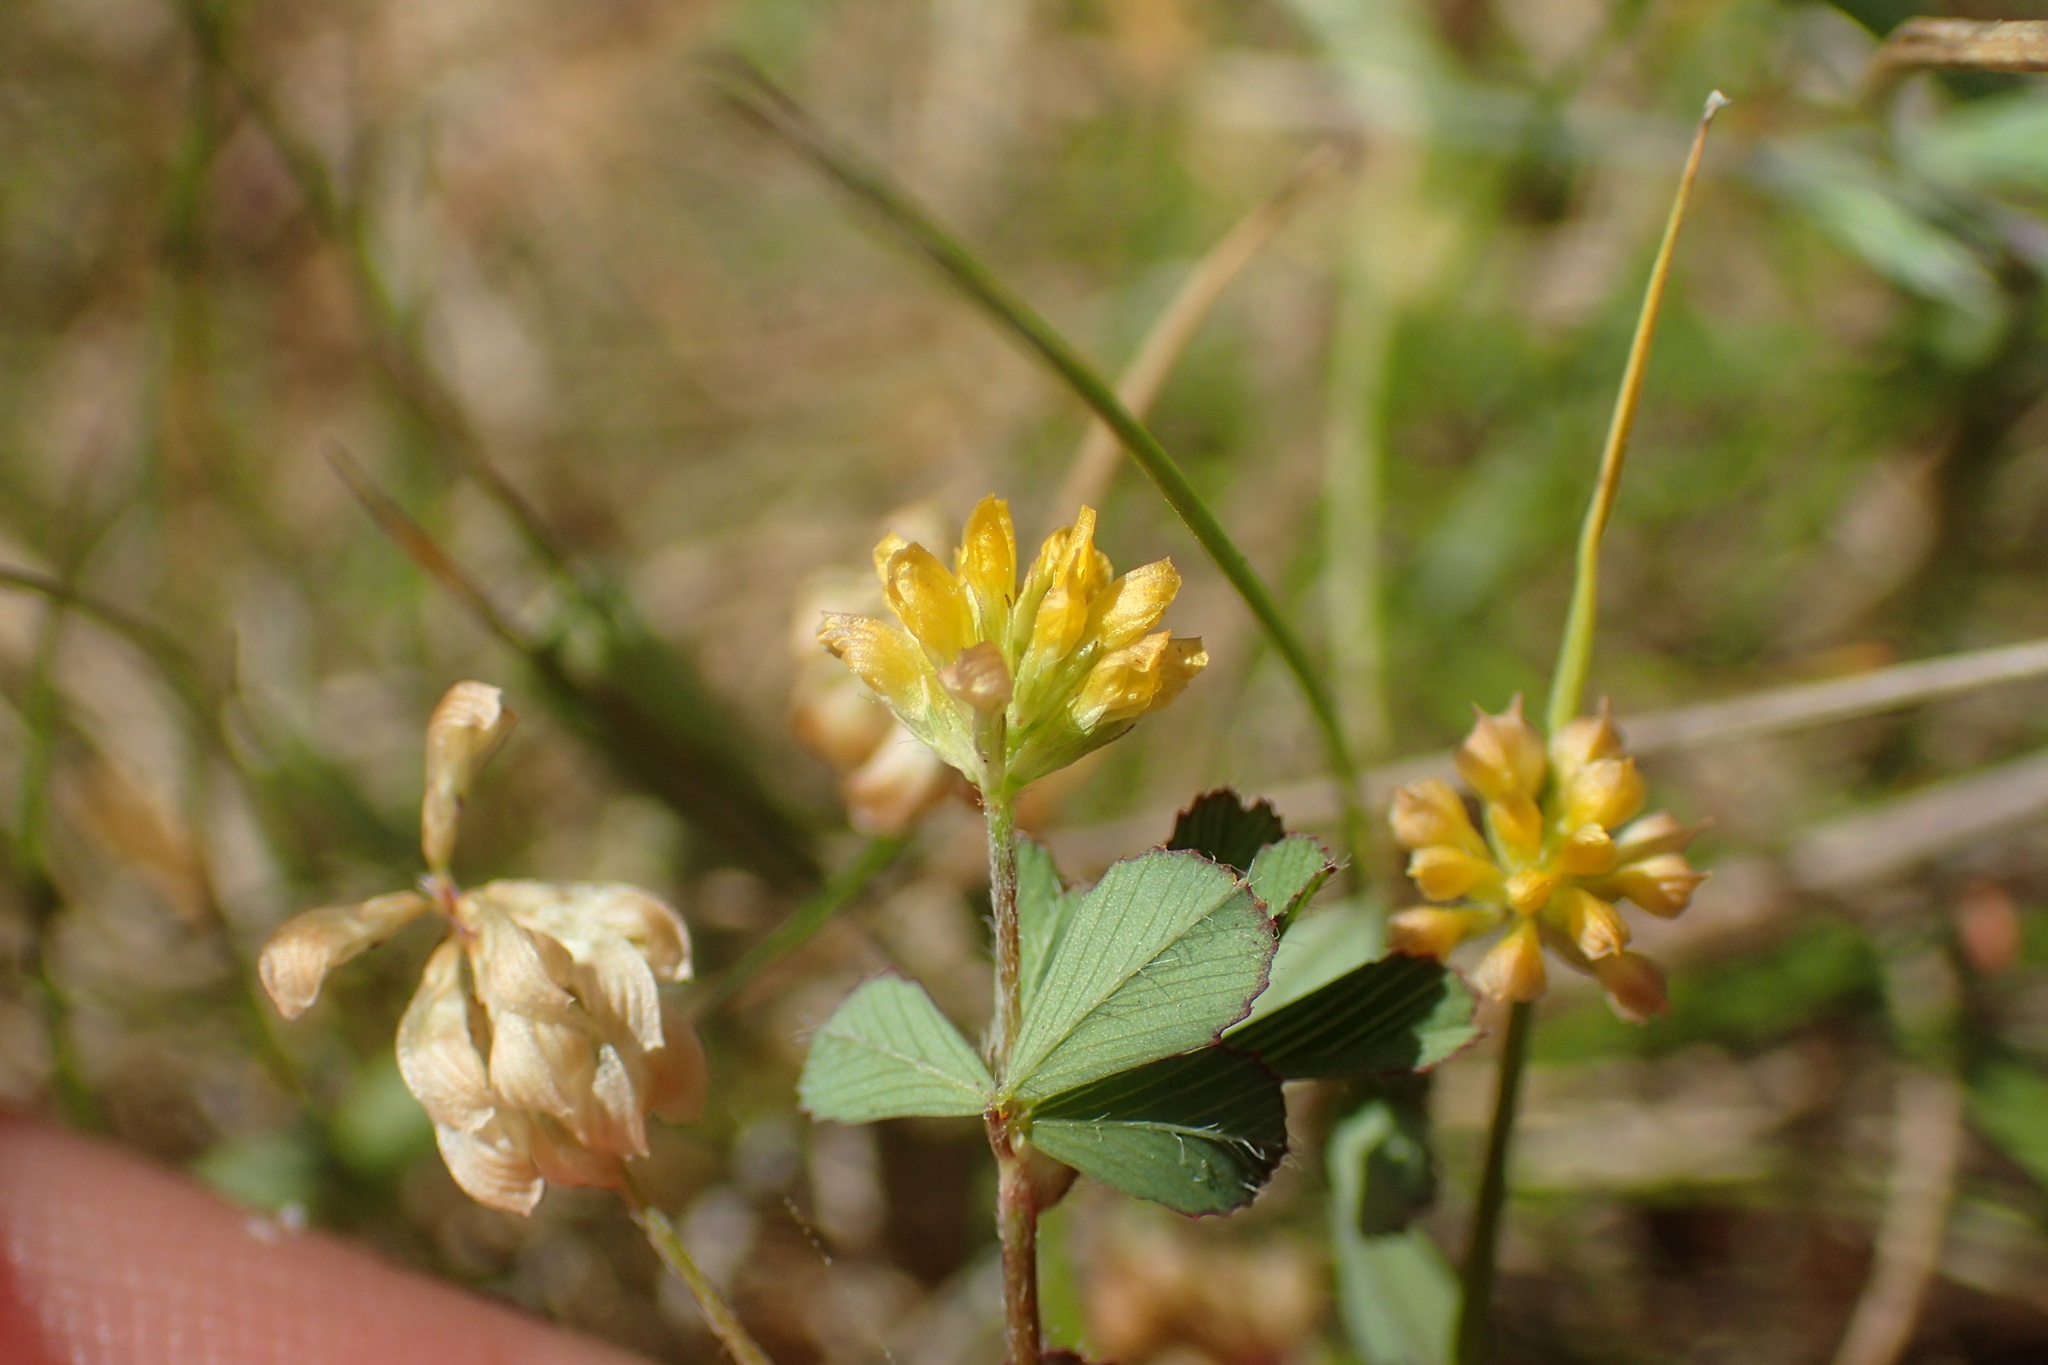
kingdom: Plantae
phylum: Tracheophyta
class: Magnoliopsida
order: Fabales
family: Fabaceae
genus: Trifolium
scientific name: Trifolium dubium
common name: Suckling clover
